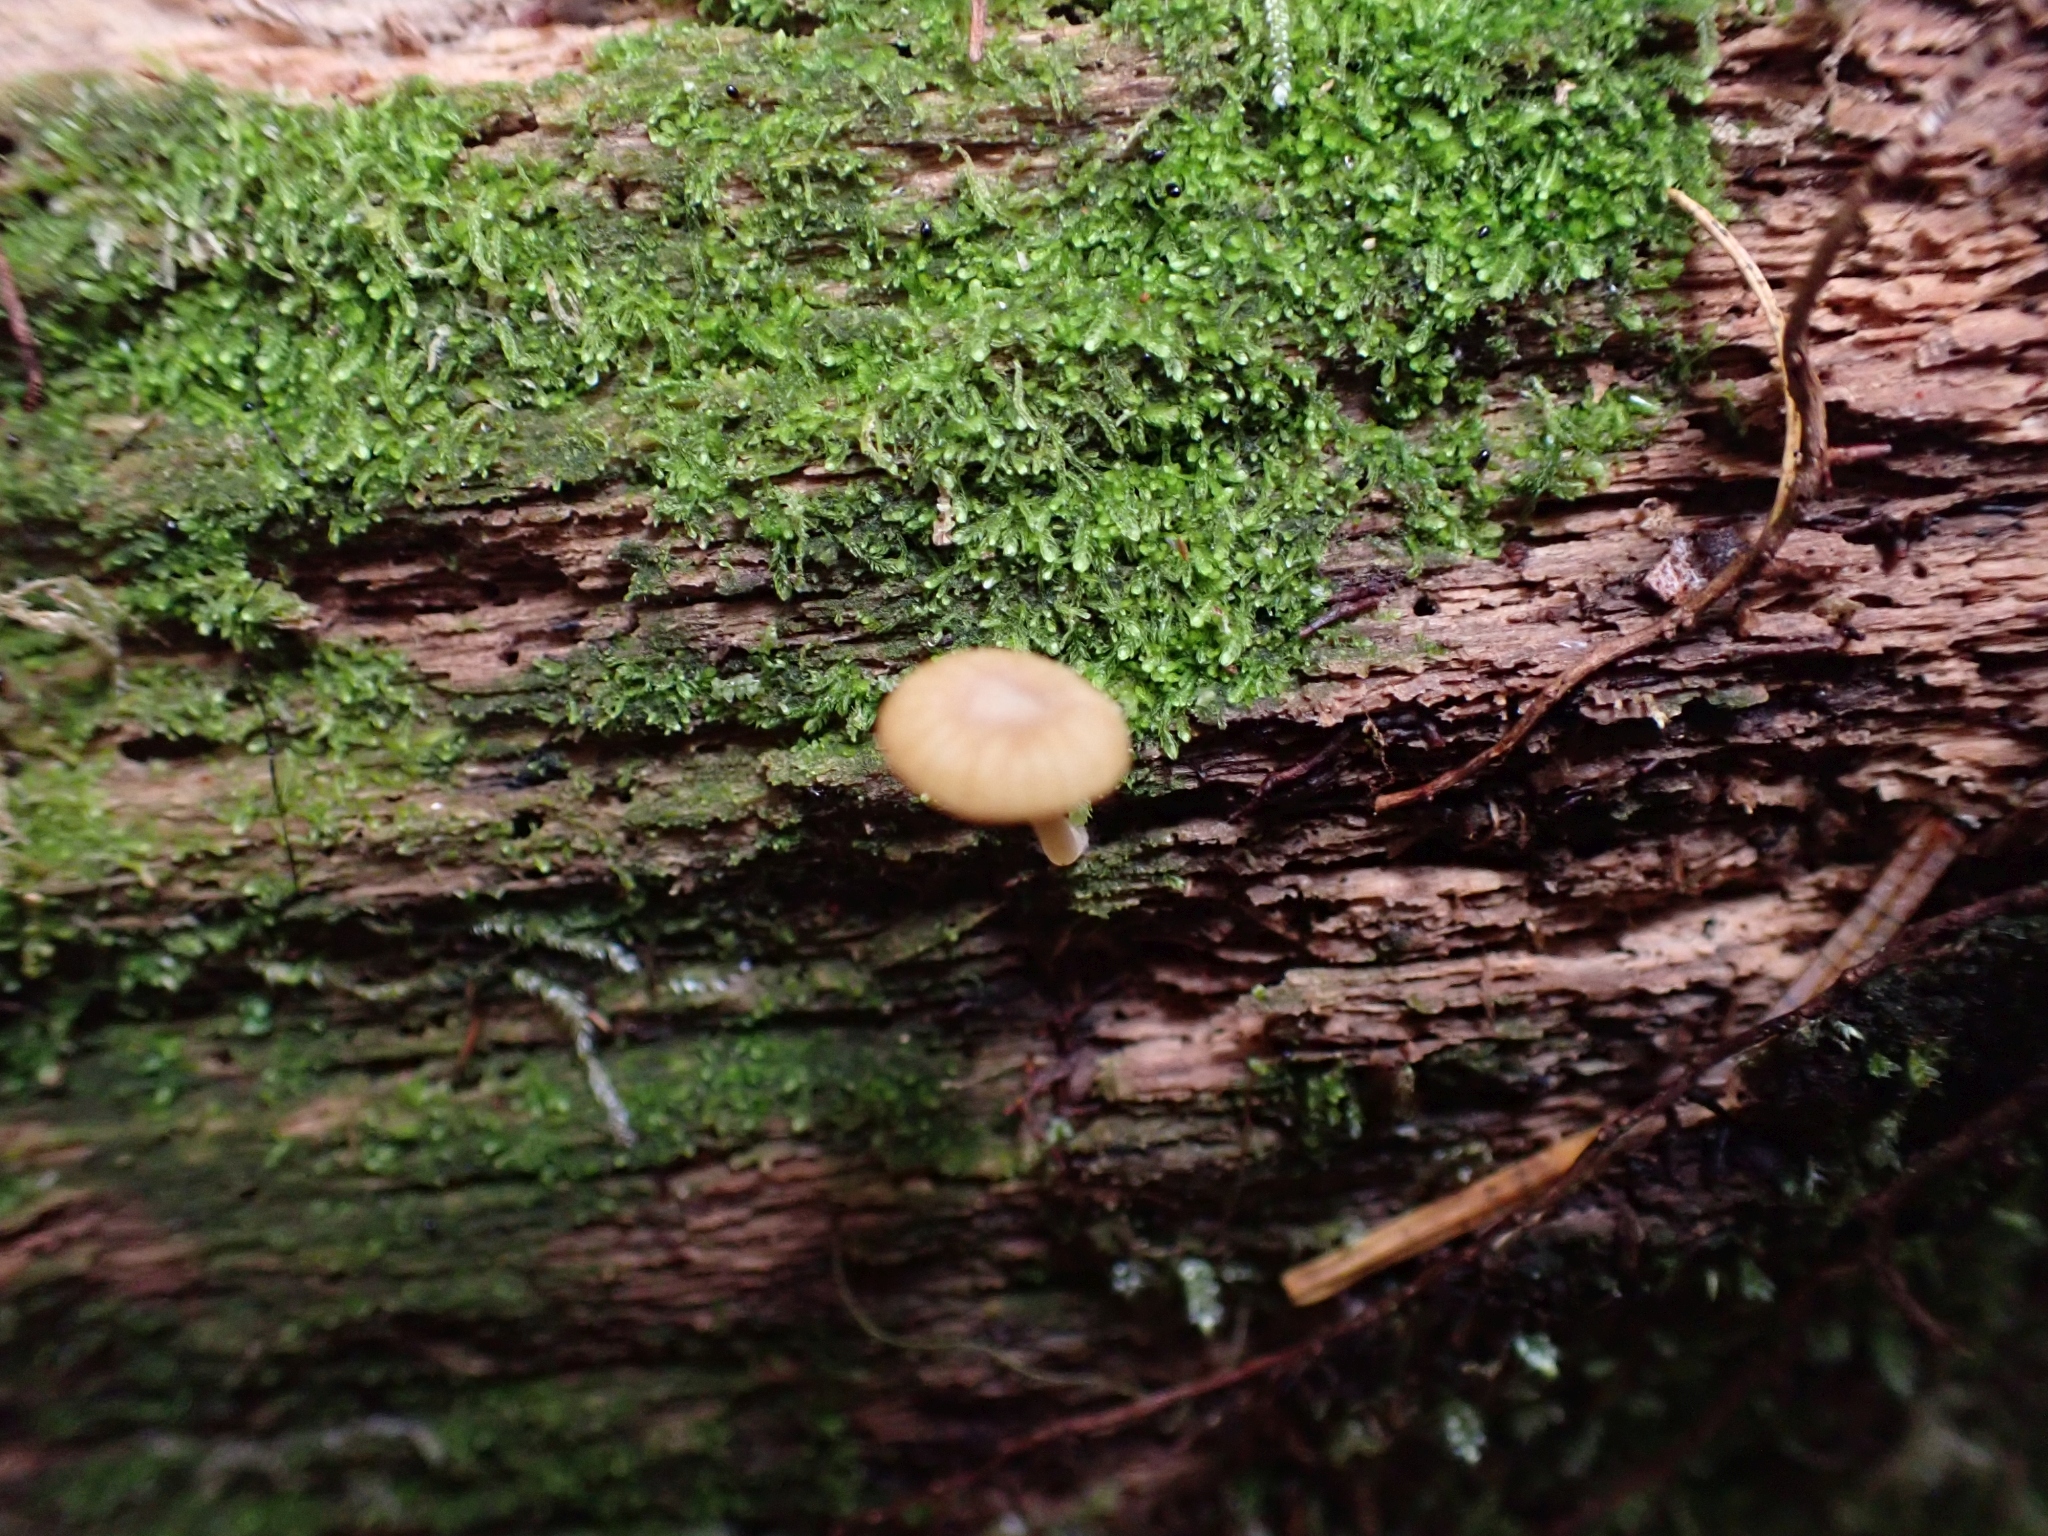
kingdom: Fungi
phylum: Basidiomycota
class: Agaricomycetes
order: Agaricales
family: Hygrophoraceae
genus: Lichenomphalia
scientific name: Lichenomphalia
